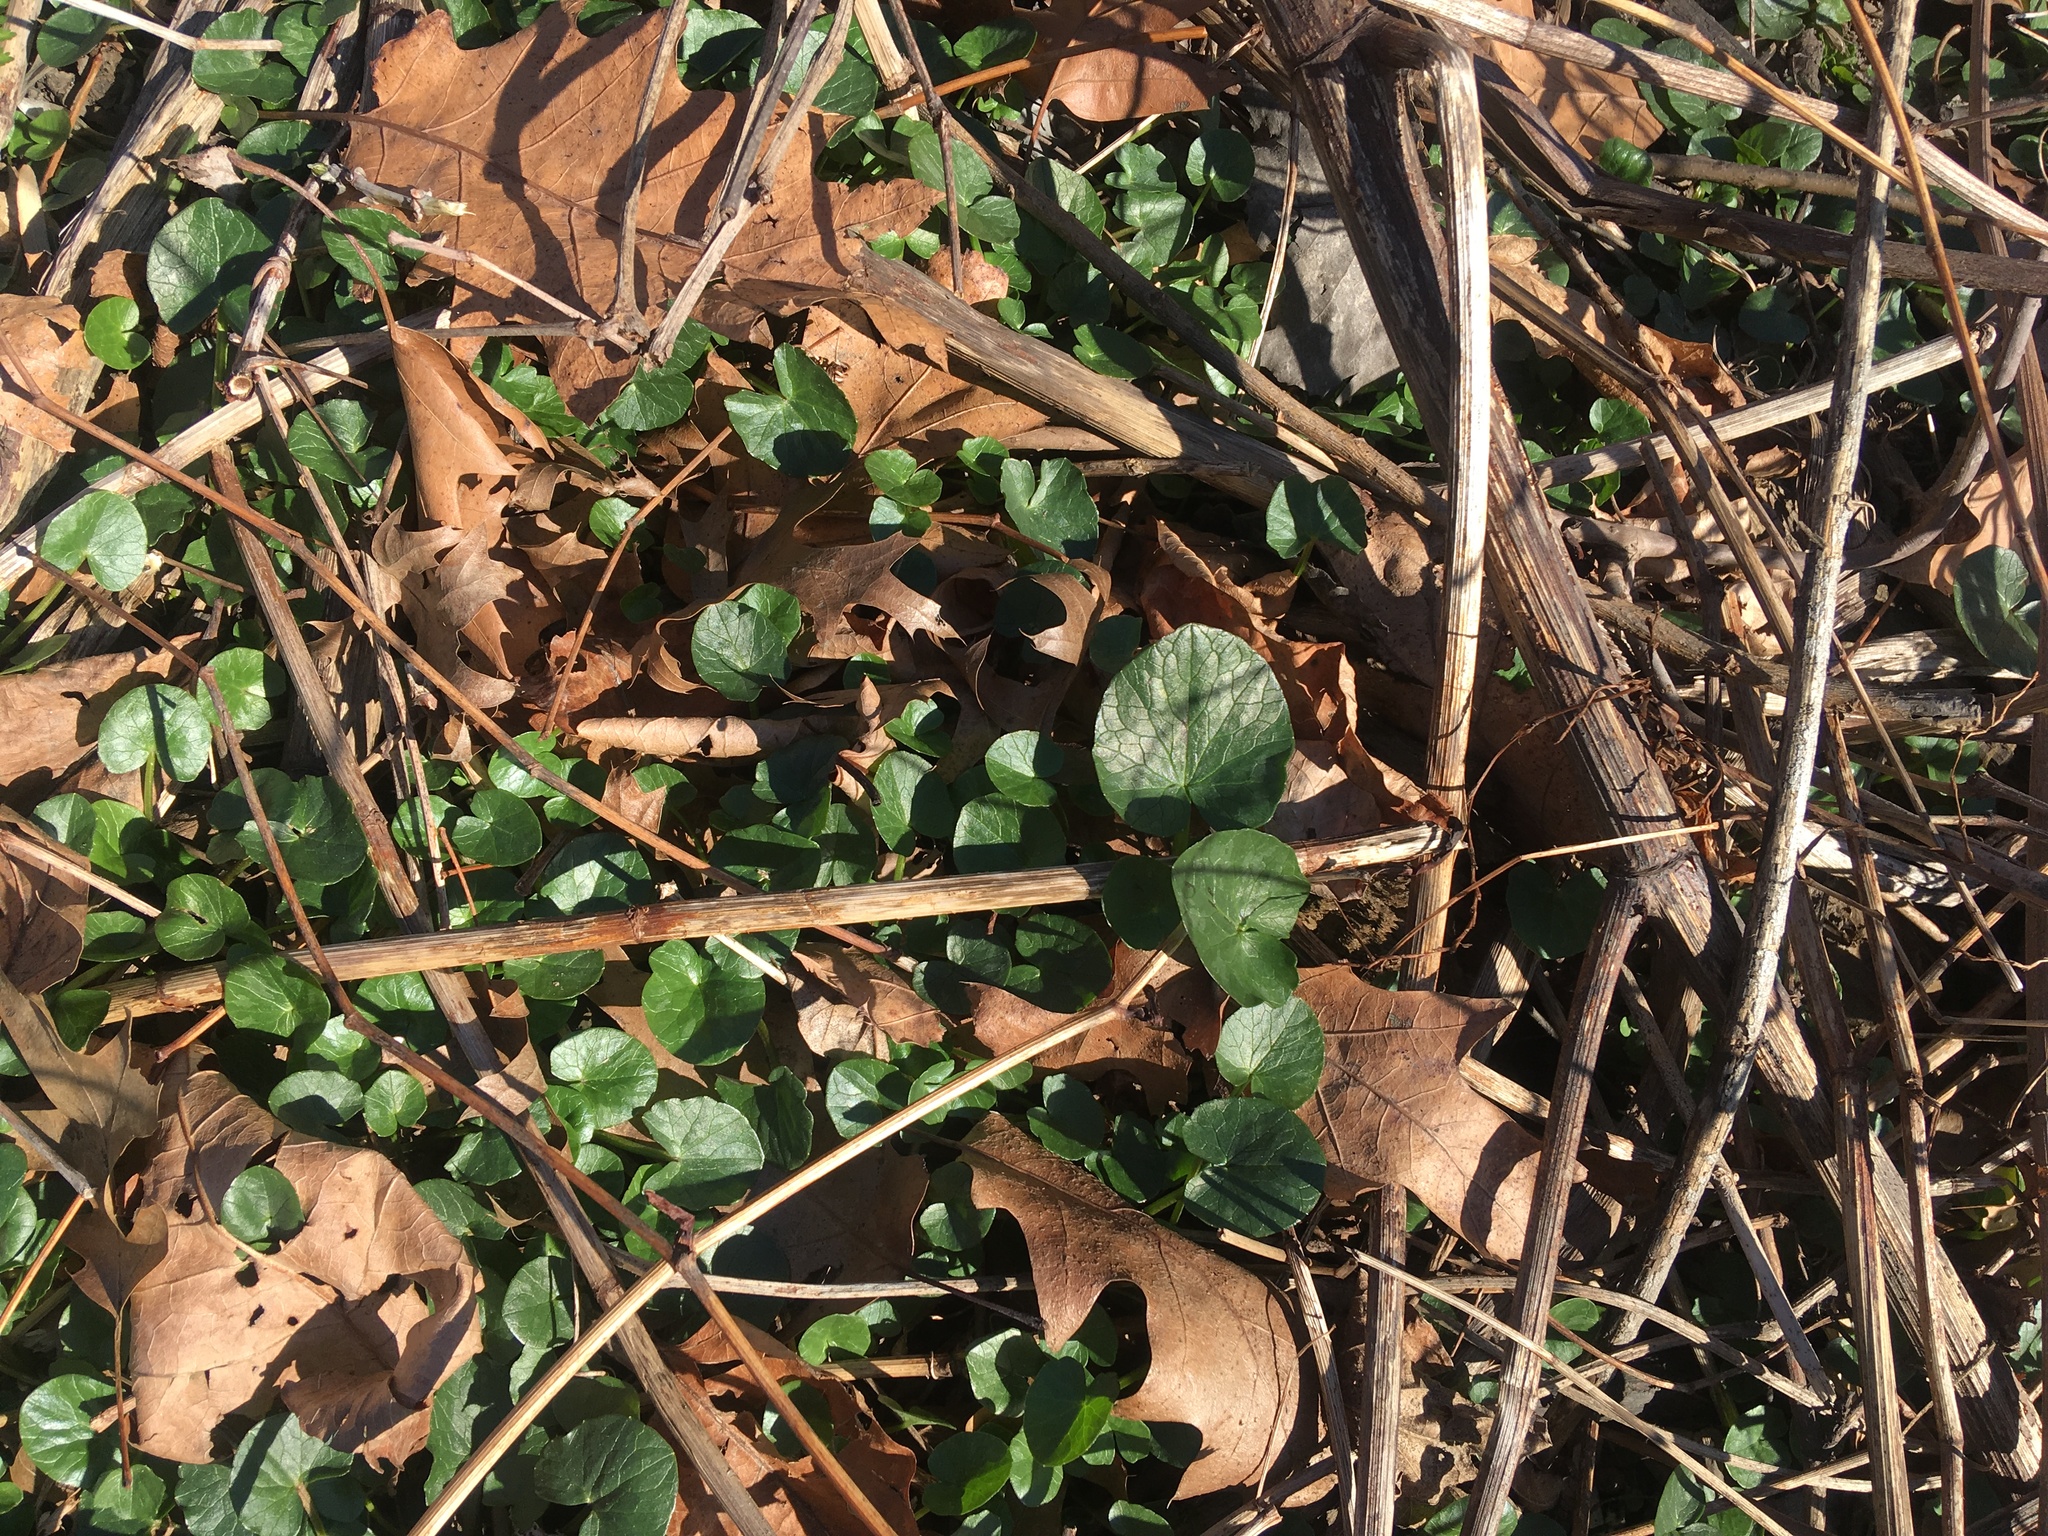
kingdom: Plantae
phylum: Tracheophyta
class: Magnoliopsida
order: Ranunculales
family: Ranunculaceae
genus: Ficaria
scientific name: Ficaria verna
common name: Lesser celandine
